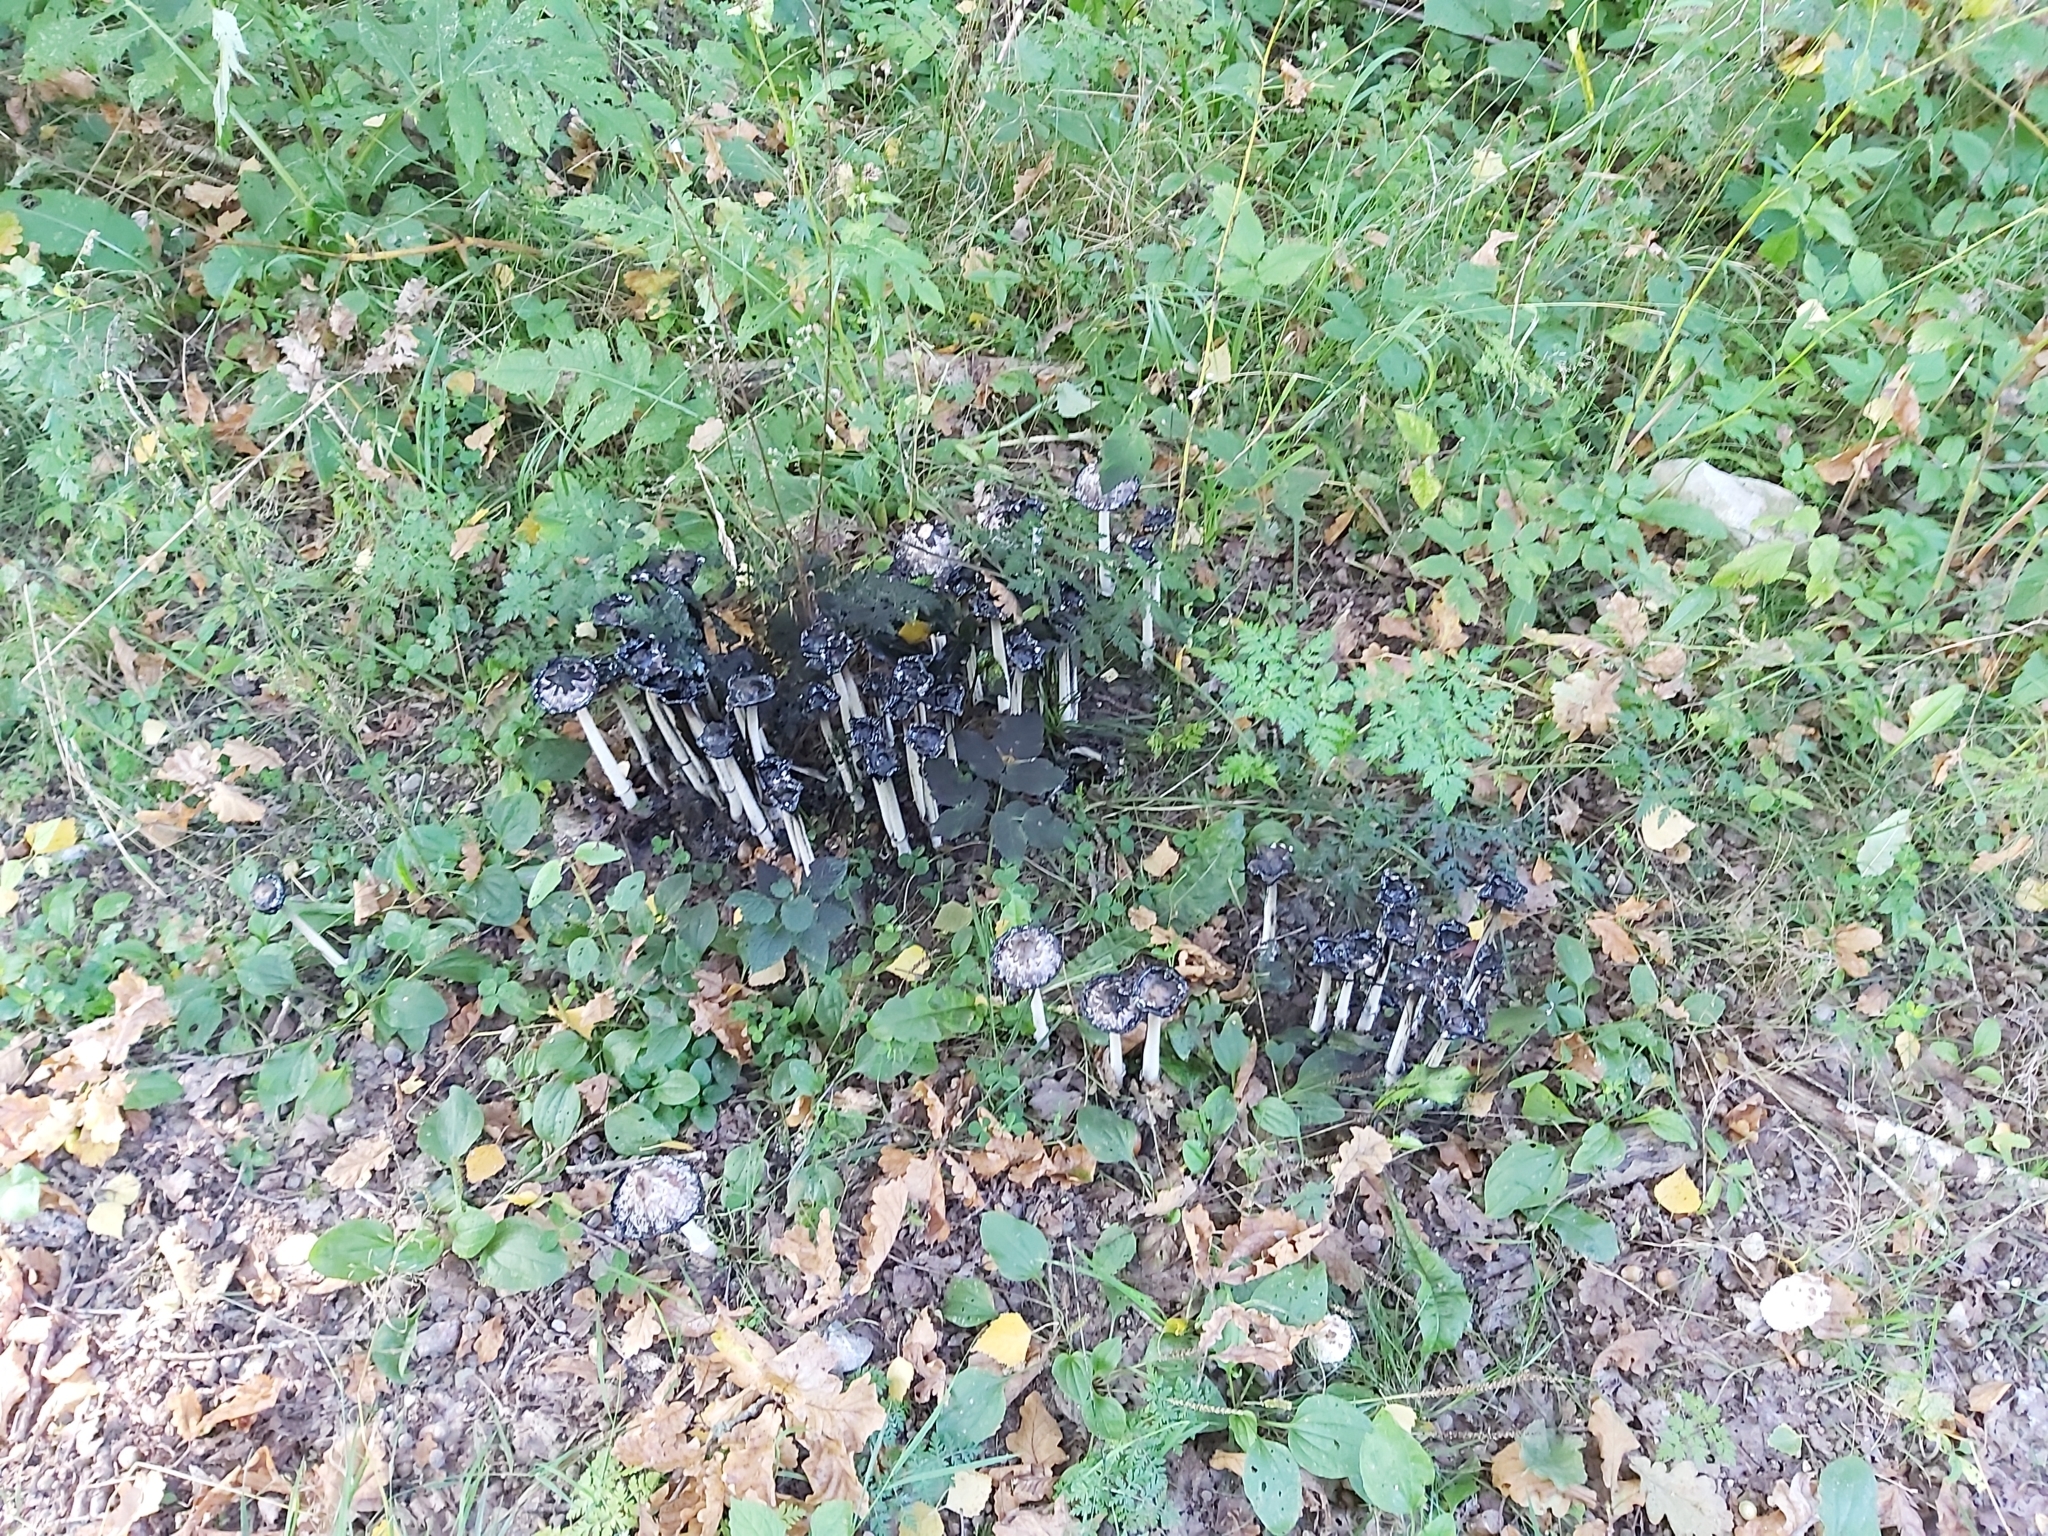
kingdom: Fungi
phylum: Basidiomycota
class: Agaricomycetes
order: Agaricales
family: Agaricaceae
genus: Coprinus
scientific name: Coprinus comatus
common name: Lawyer's wig
